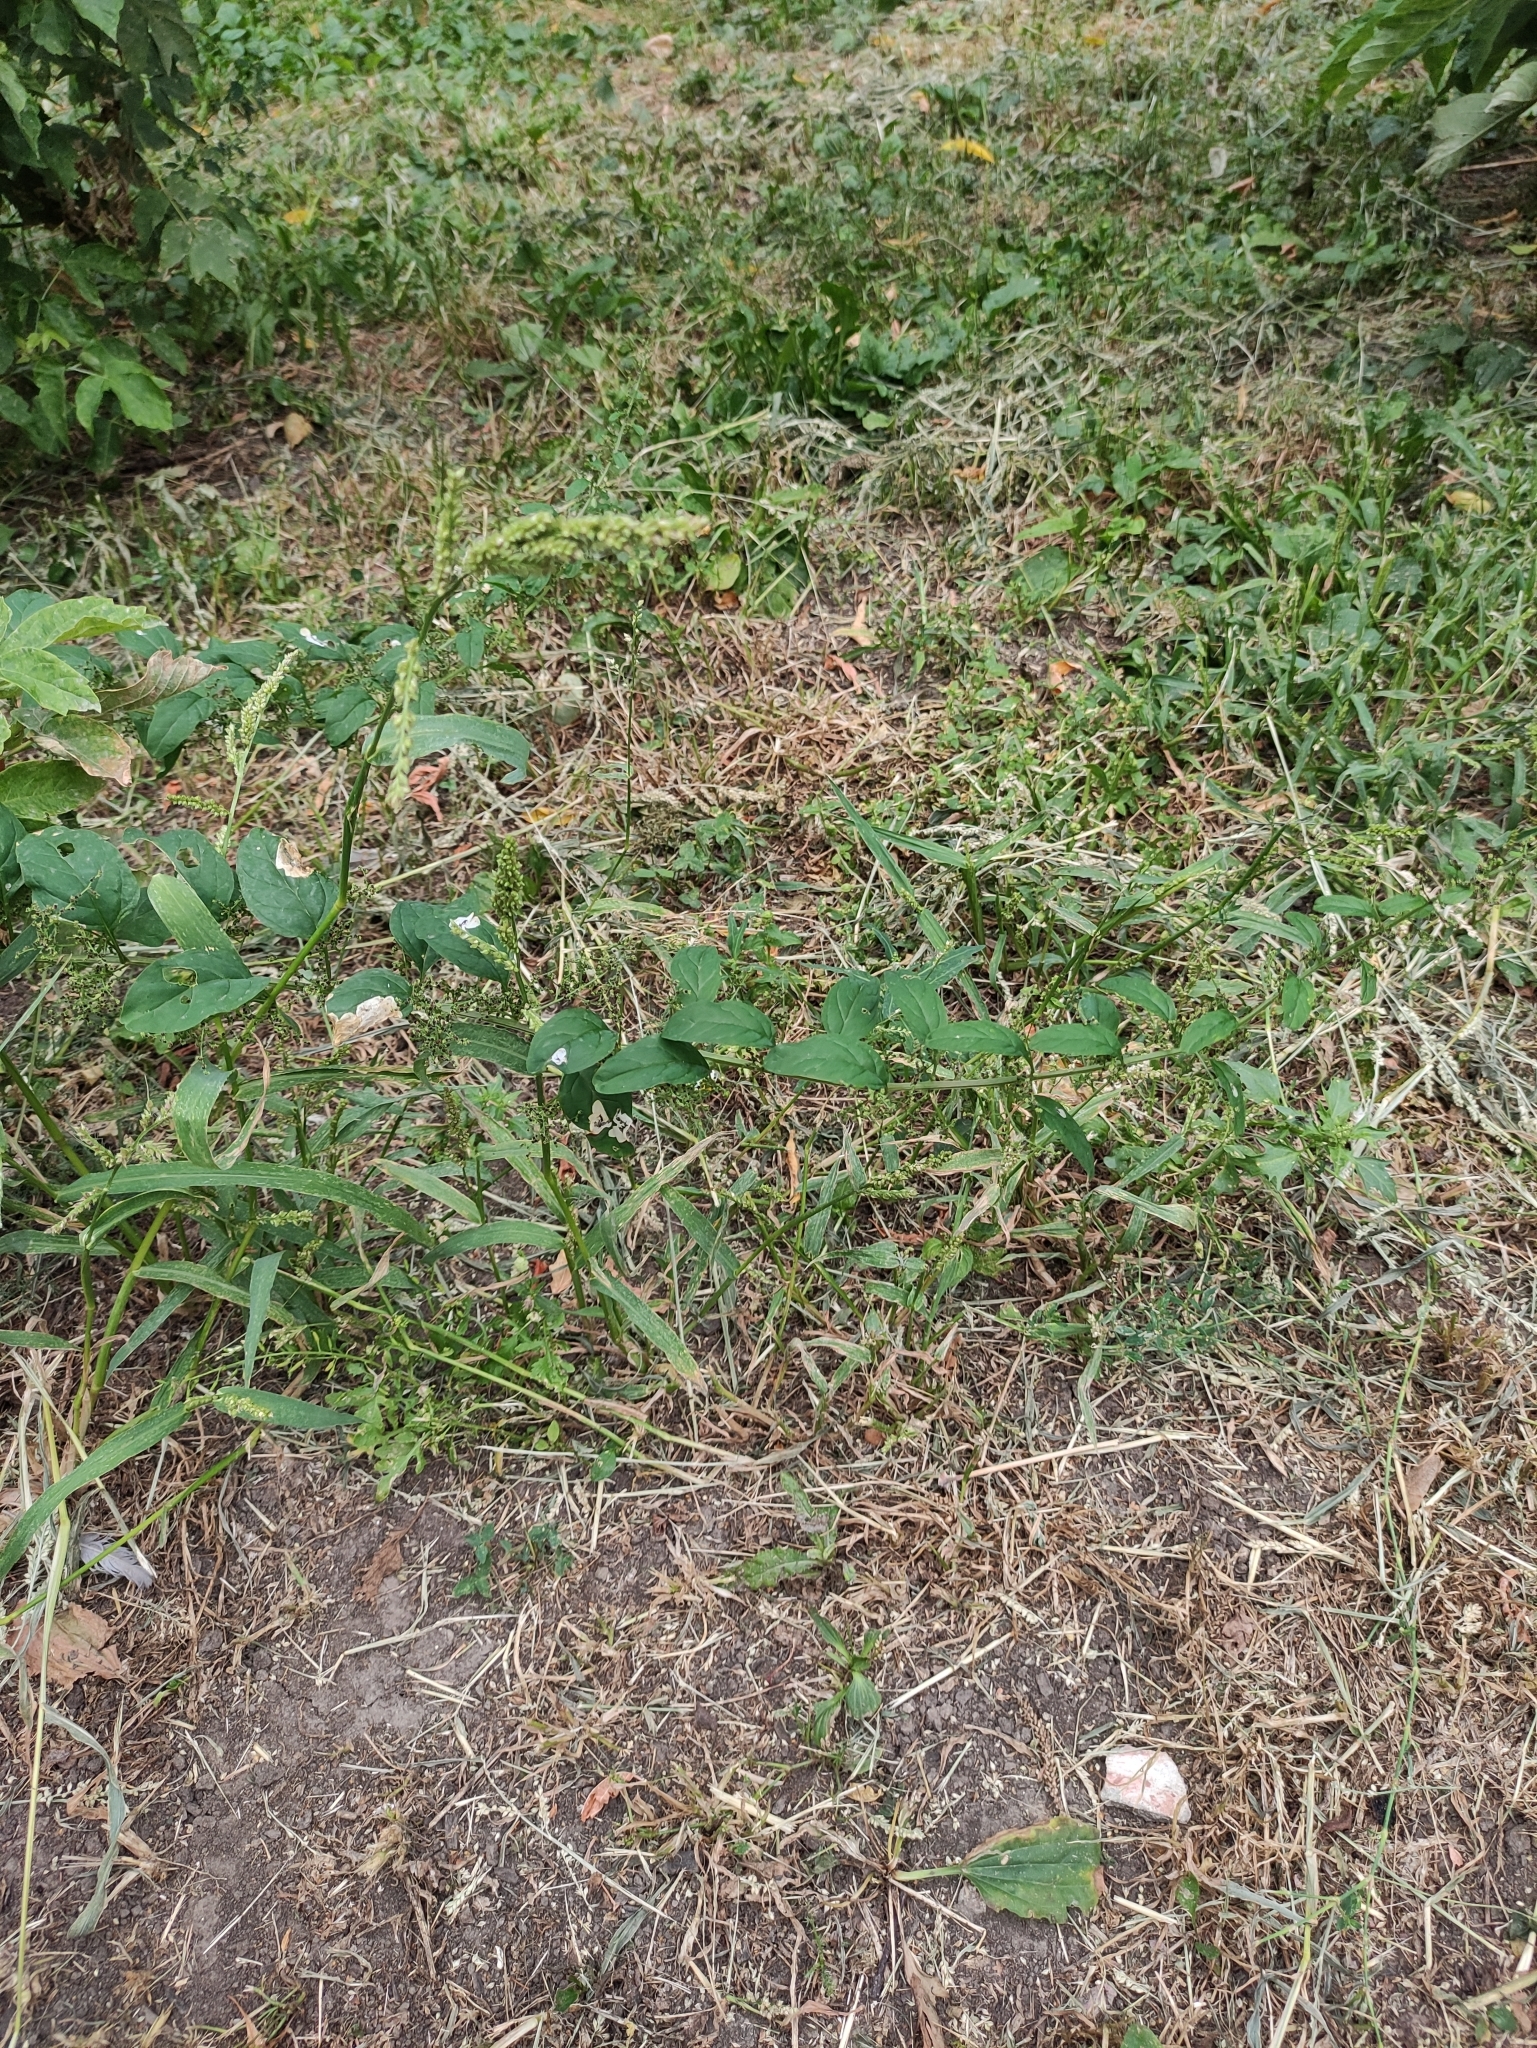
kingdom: Plantae
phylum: Tracheophyta
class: Magnoliopsida
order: Caryophyllales
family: Amaranthaceae
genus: Lipandra
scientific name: Lipandra polysperma
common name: Many-seed goosefoot
